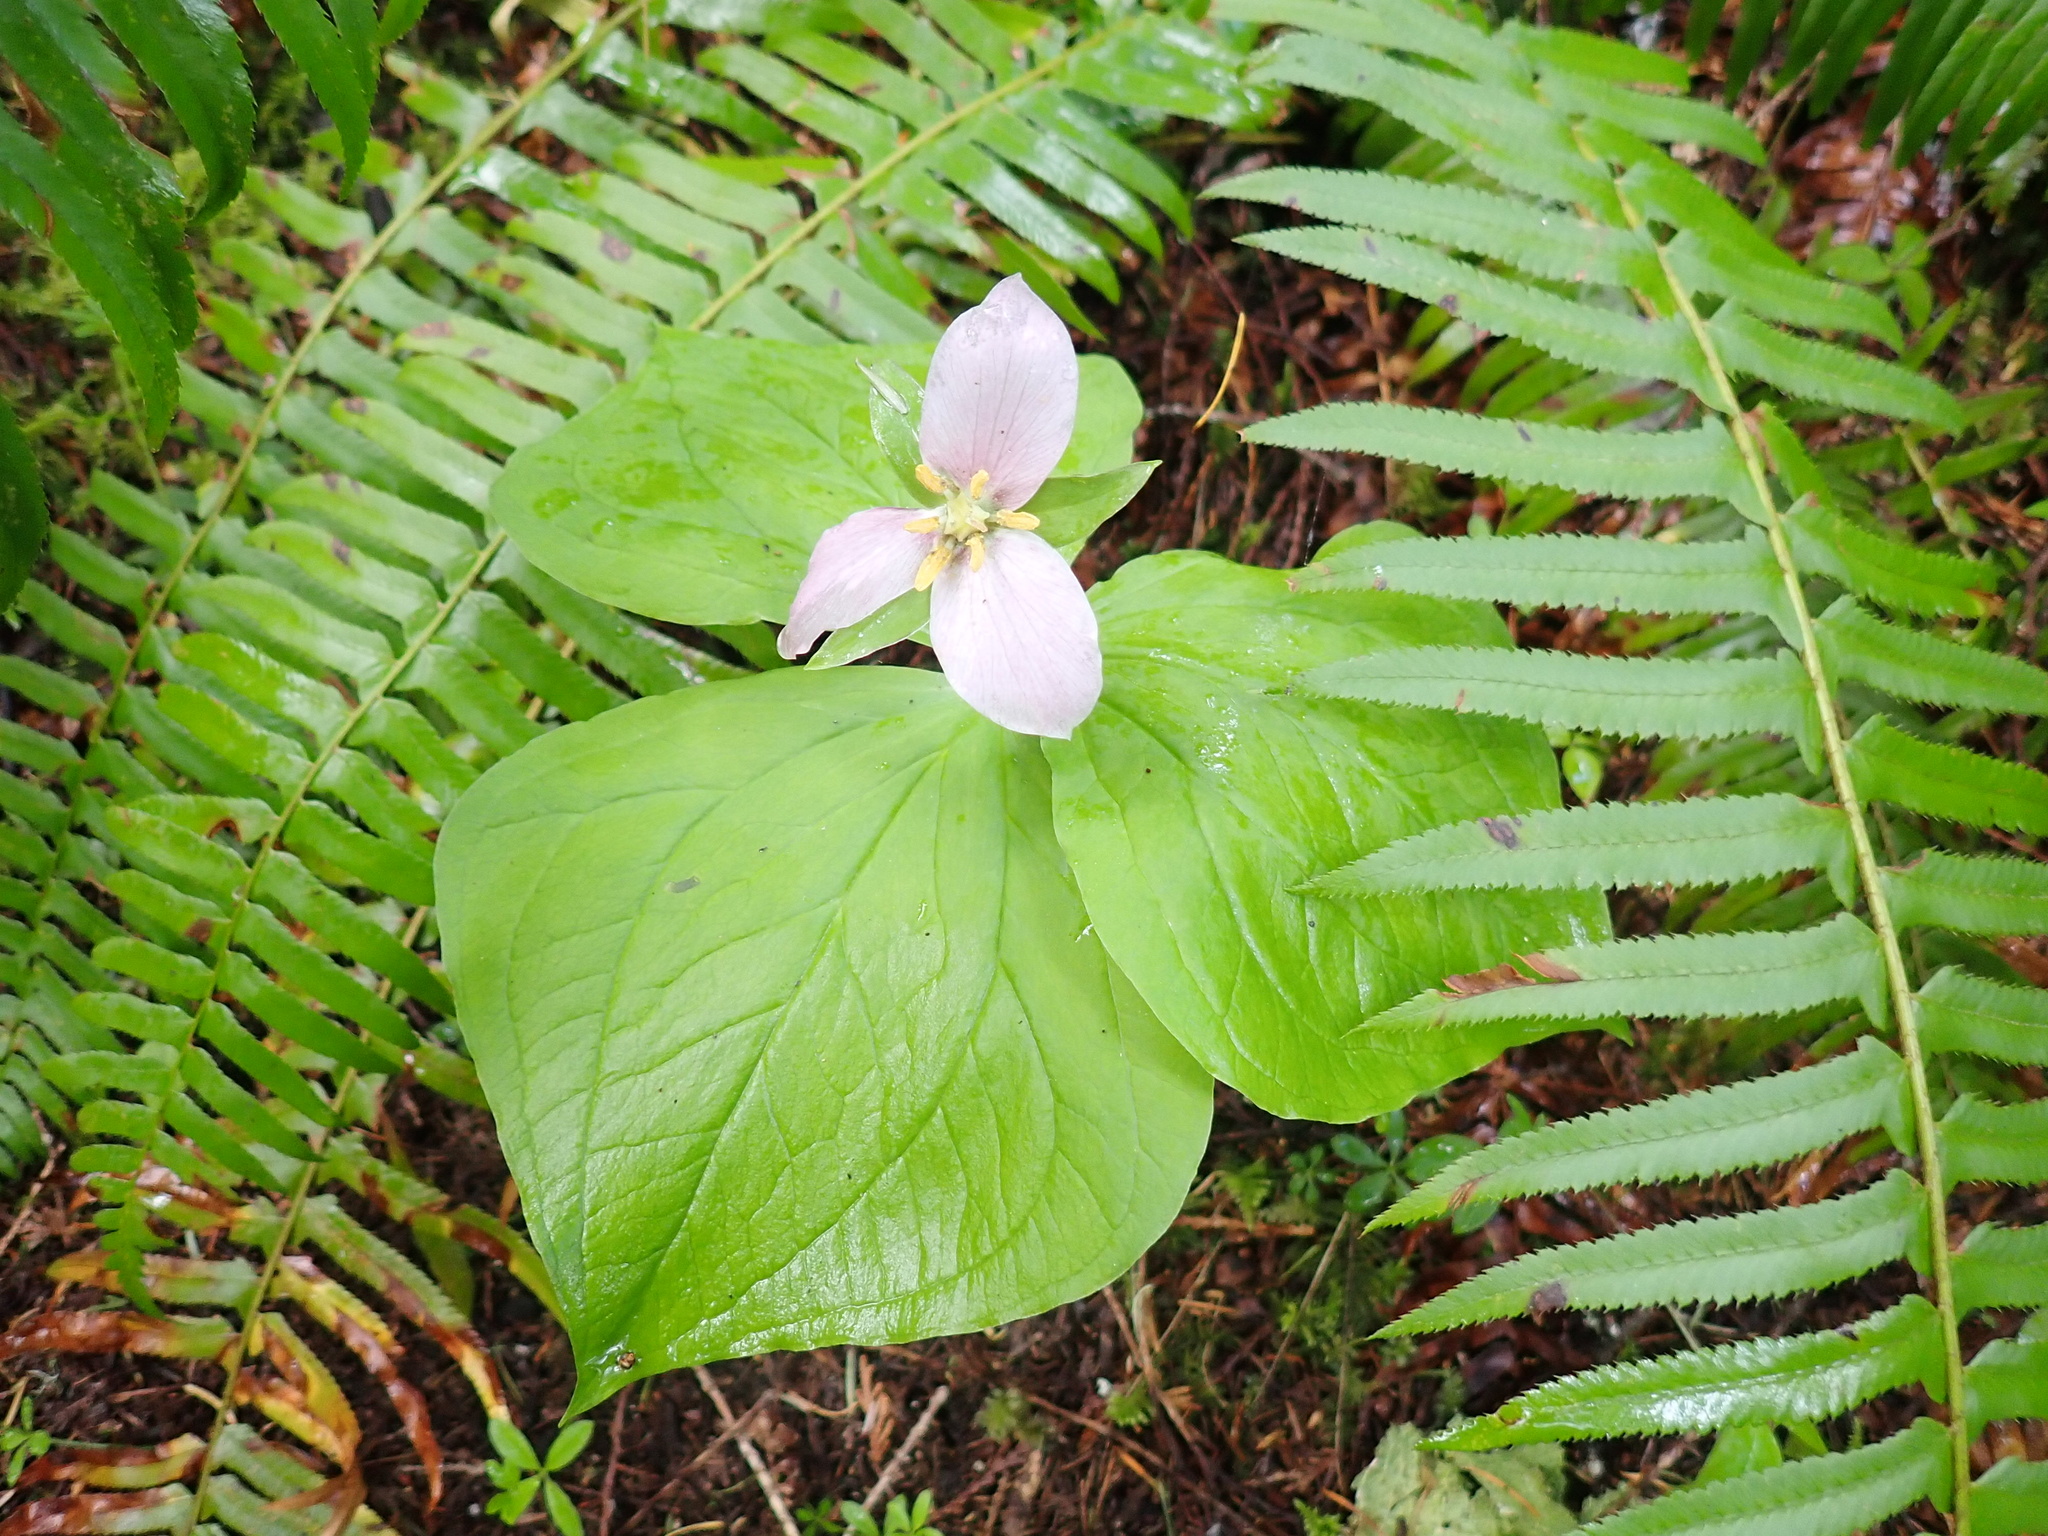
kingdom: Plantae
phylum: Tracheophyta
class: Liliopsida
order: Liliales
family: Melanthiaceae
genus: Trillium
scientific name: Trillium ovatum
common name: Pacific trillium
